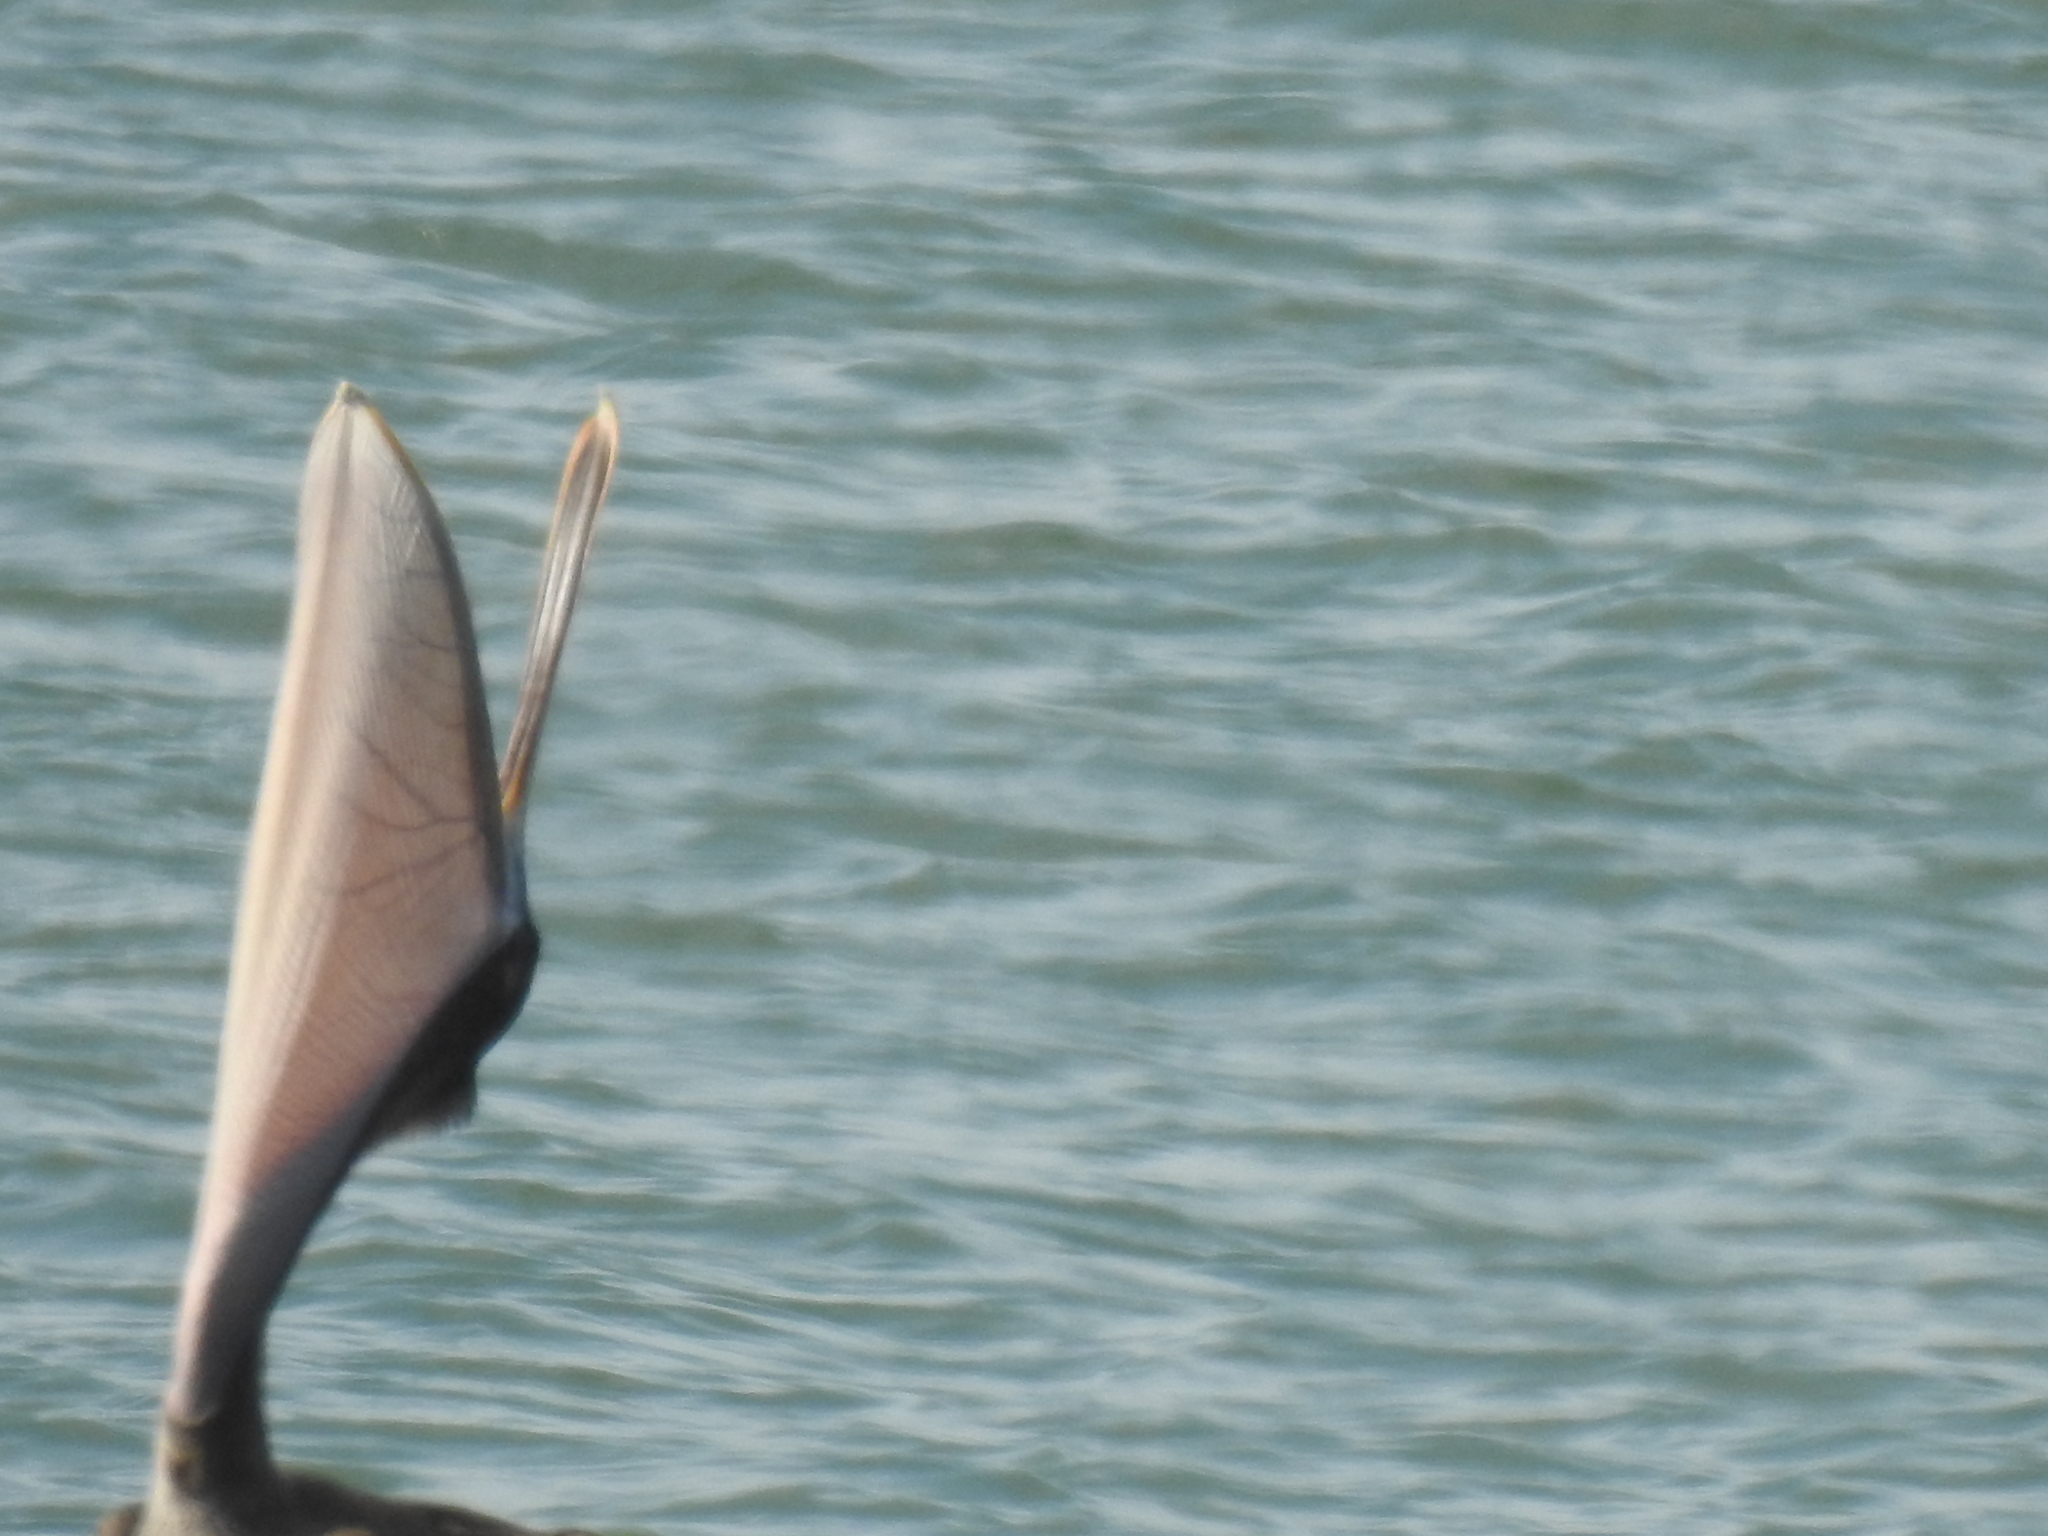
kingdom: Animalia
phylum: Chordata
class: Aves
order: Pelecaniformes
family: Pelecanidae
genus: Pelecanus
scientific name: Pelecanus occidentalis
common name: Brown pelican
